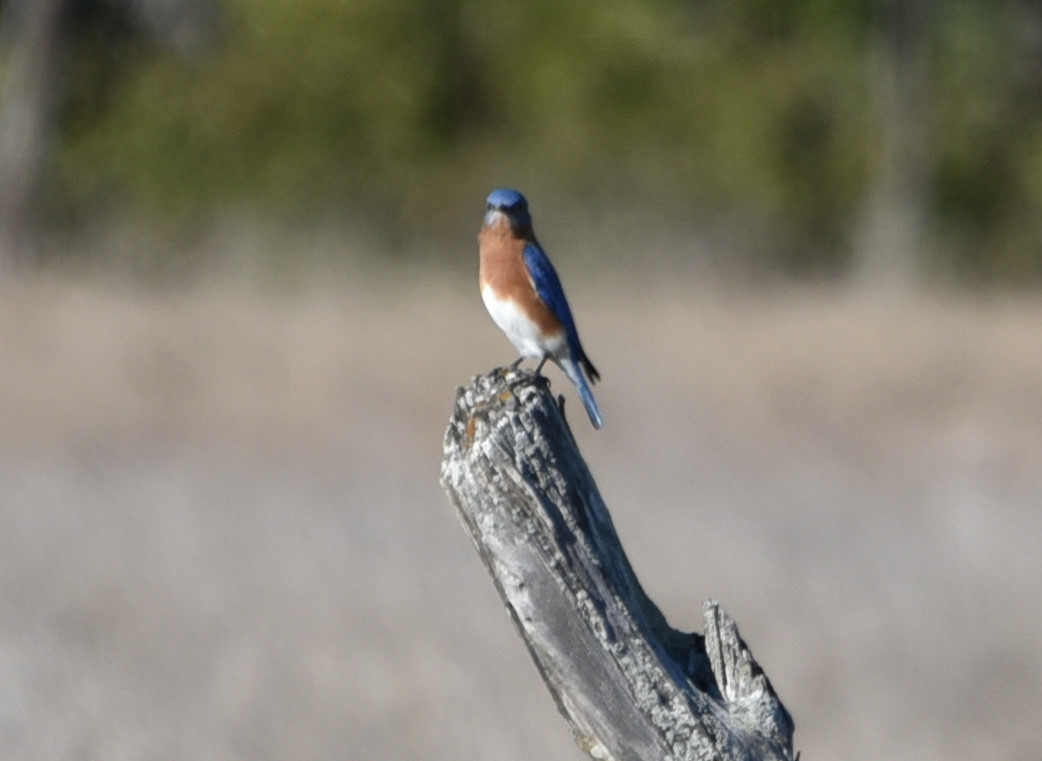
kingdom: Animalia
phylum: Chordata
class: Aves
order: Passeriformes
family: Turdidae
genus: Sialia
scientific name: Sialia sialis
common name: Eastern bluebird
